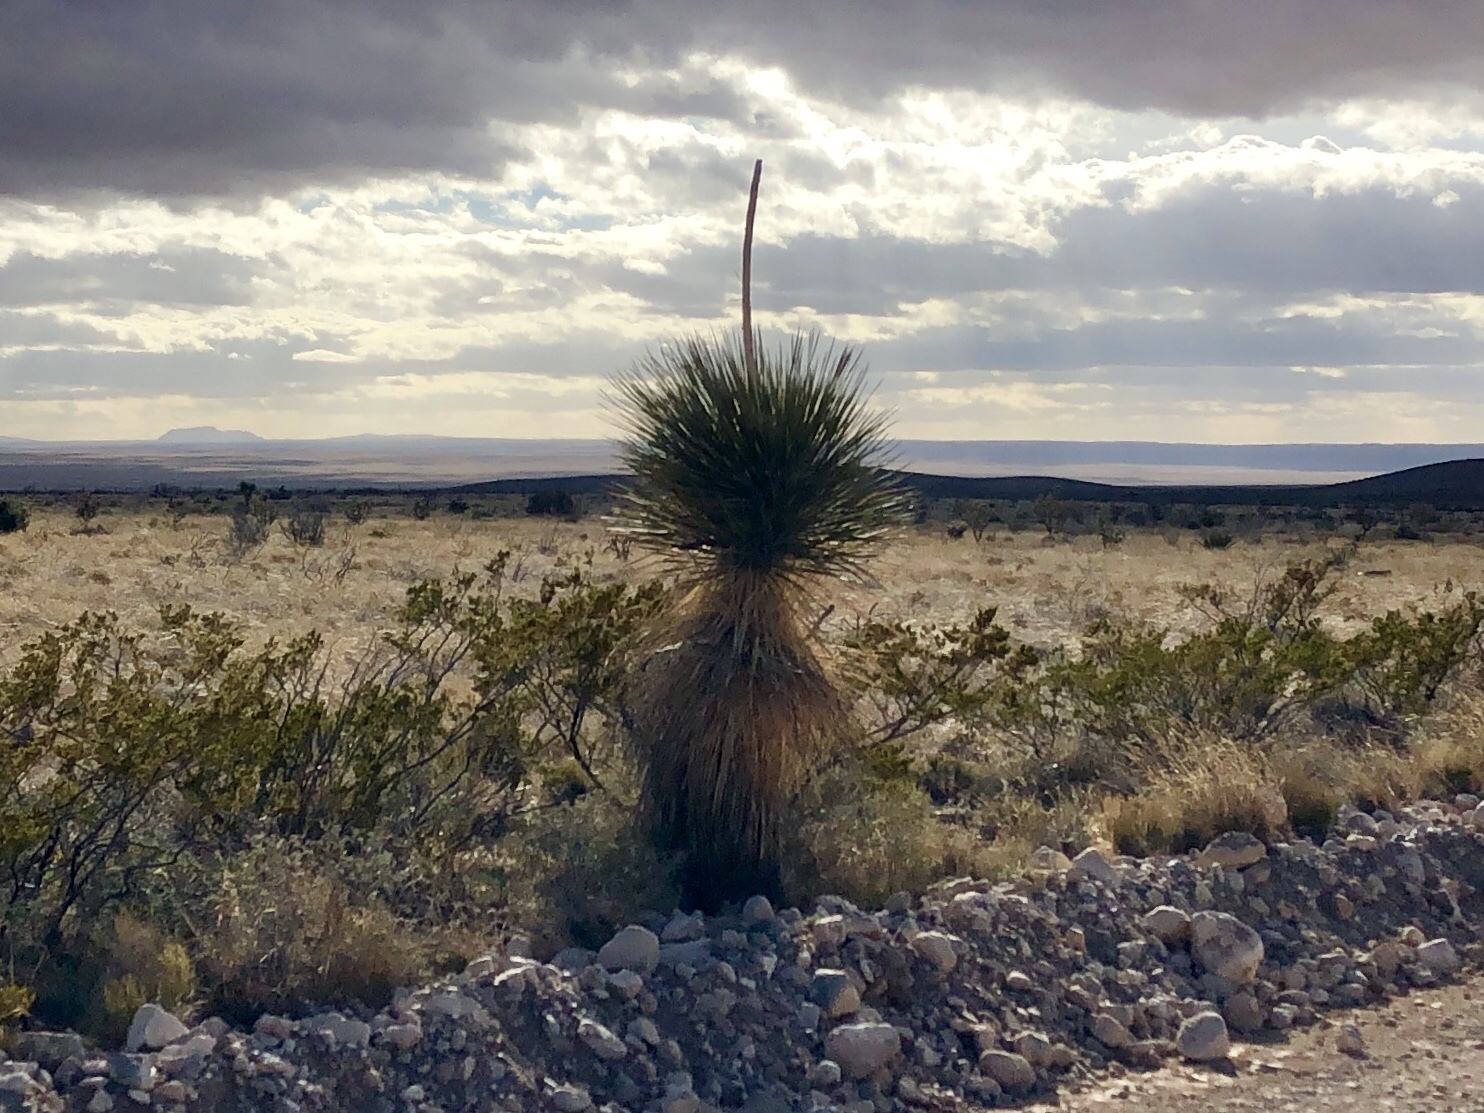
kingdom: Plantae
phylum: Tracheophyta
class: Liliopsida
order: Asparagales
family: Asparagaceae
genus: Yucca
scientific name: Yucca elata
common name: Palmella
